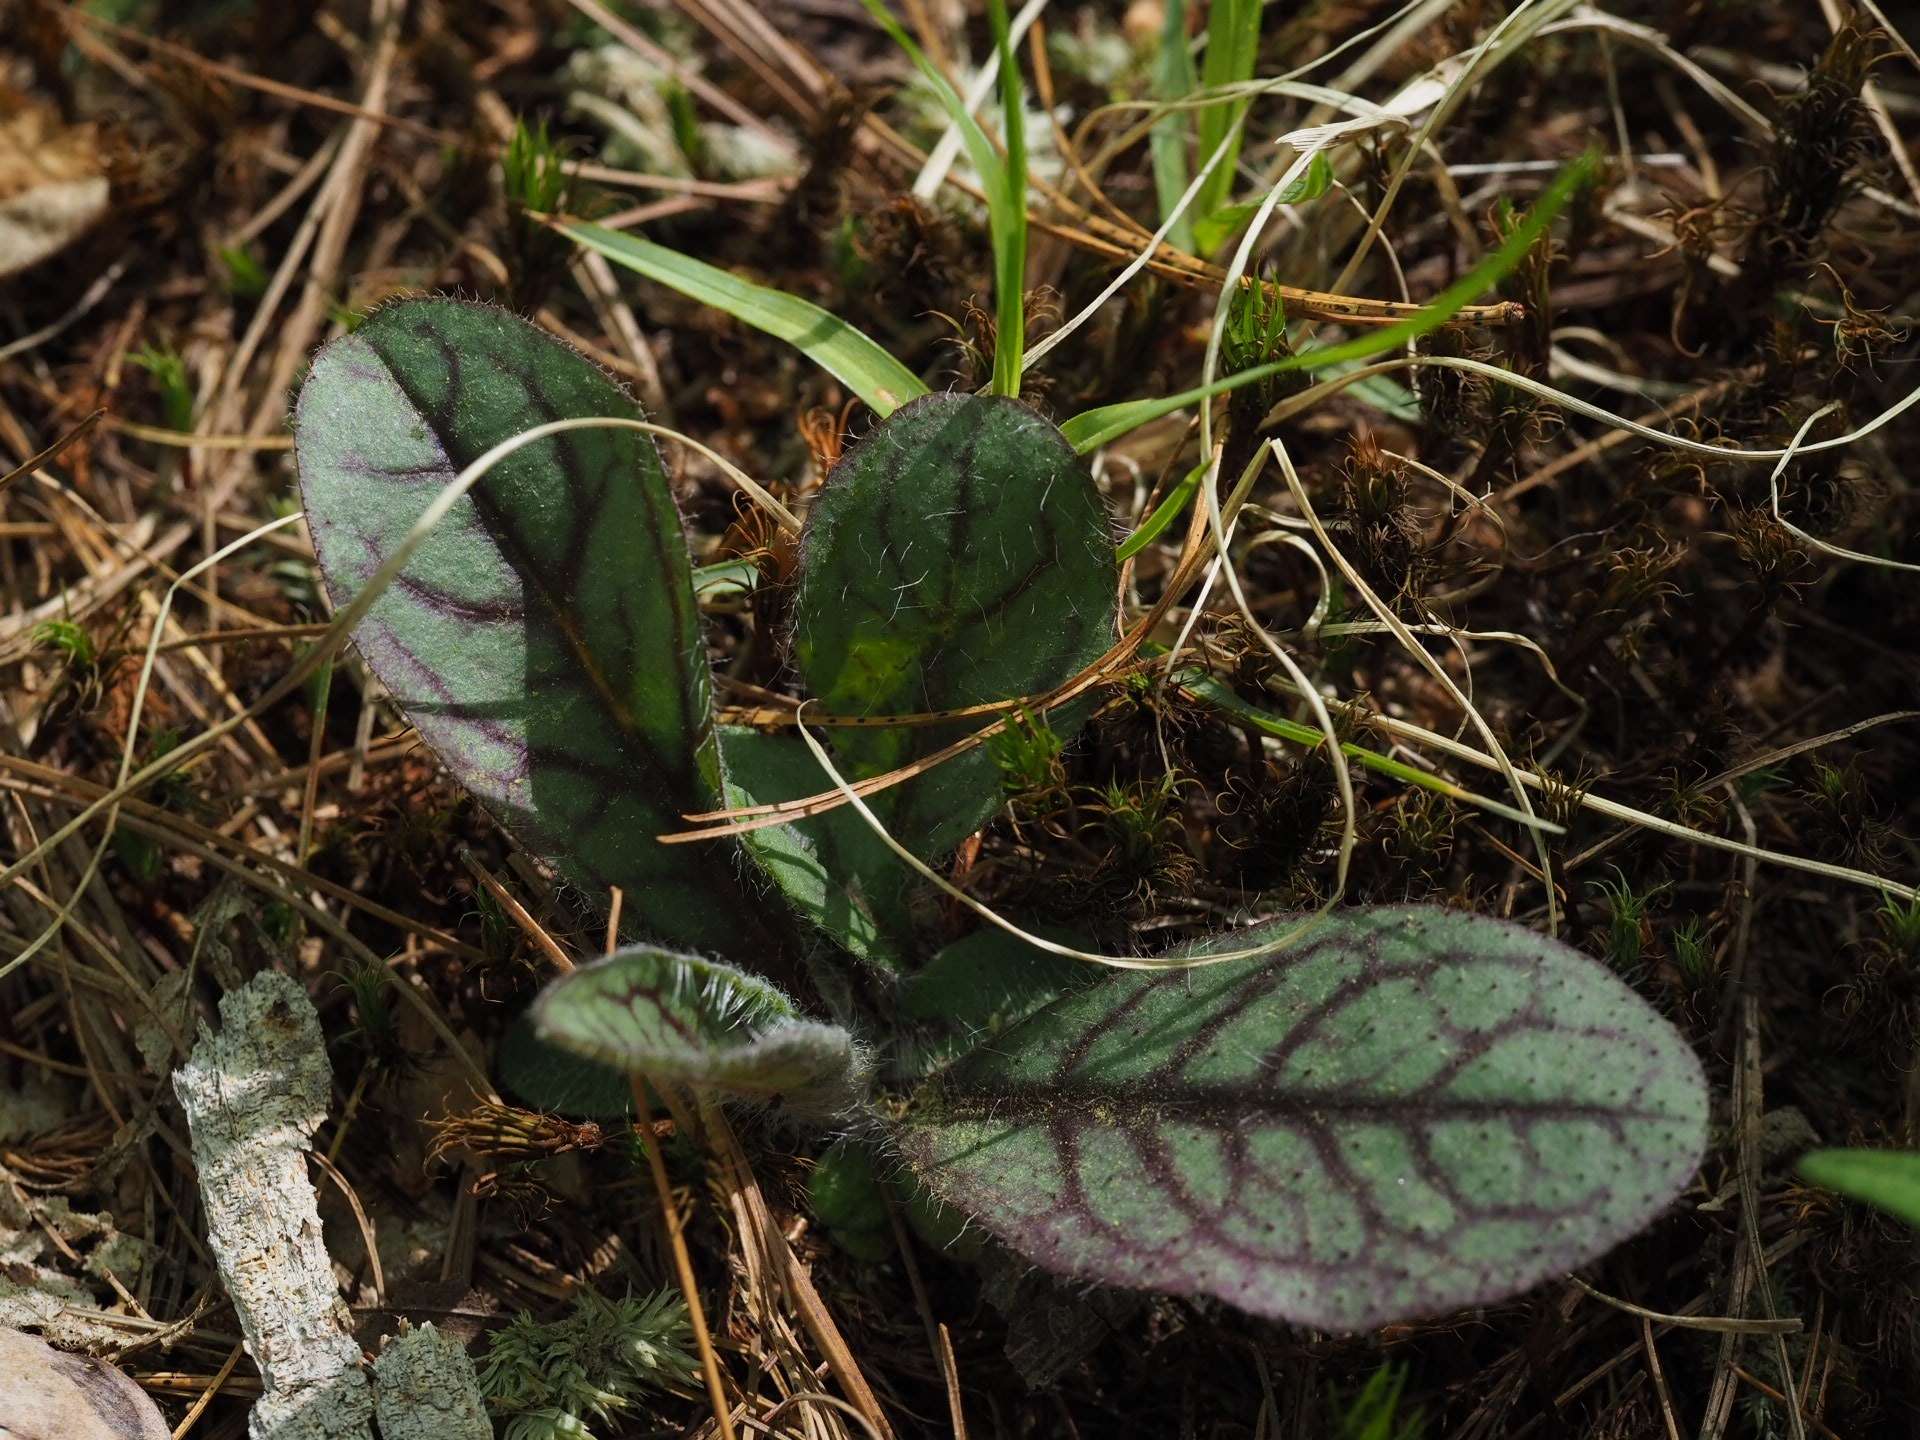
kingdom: Plantae
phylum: Tracheophyta
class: Magnoliopsida
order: Asterales
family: Asteraceae
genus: Hieracium
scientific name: Hieracium venosum
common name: Rattlesnake hawkweed
